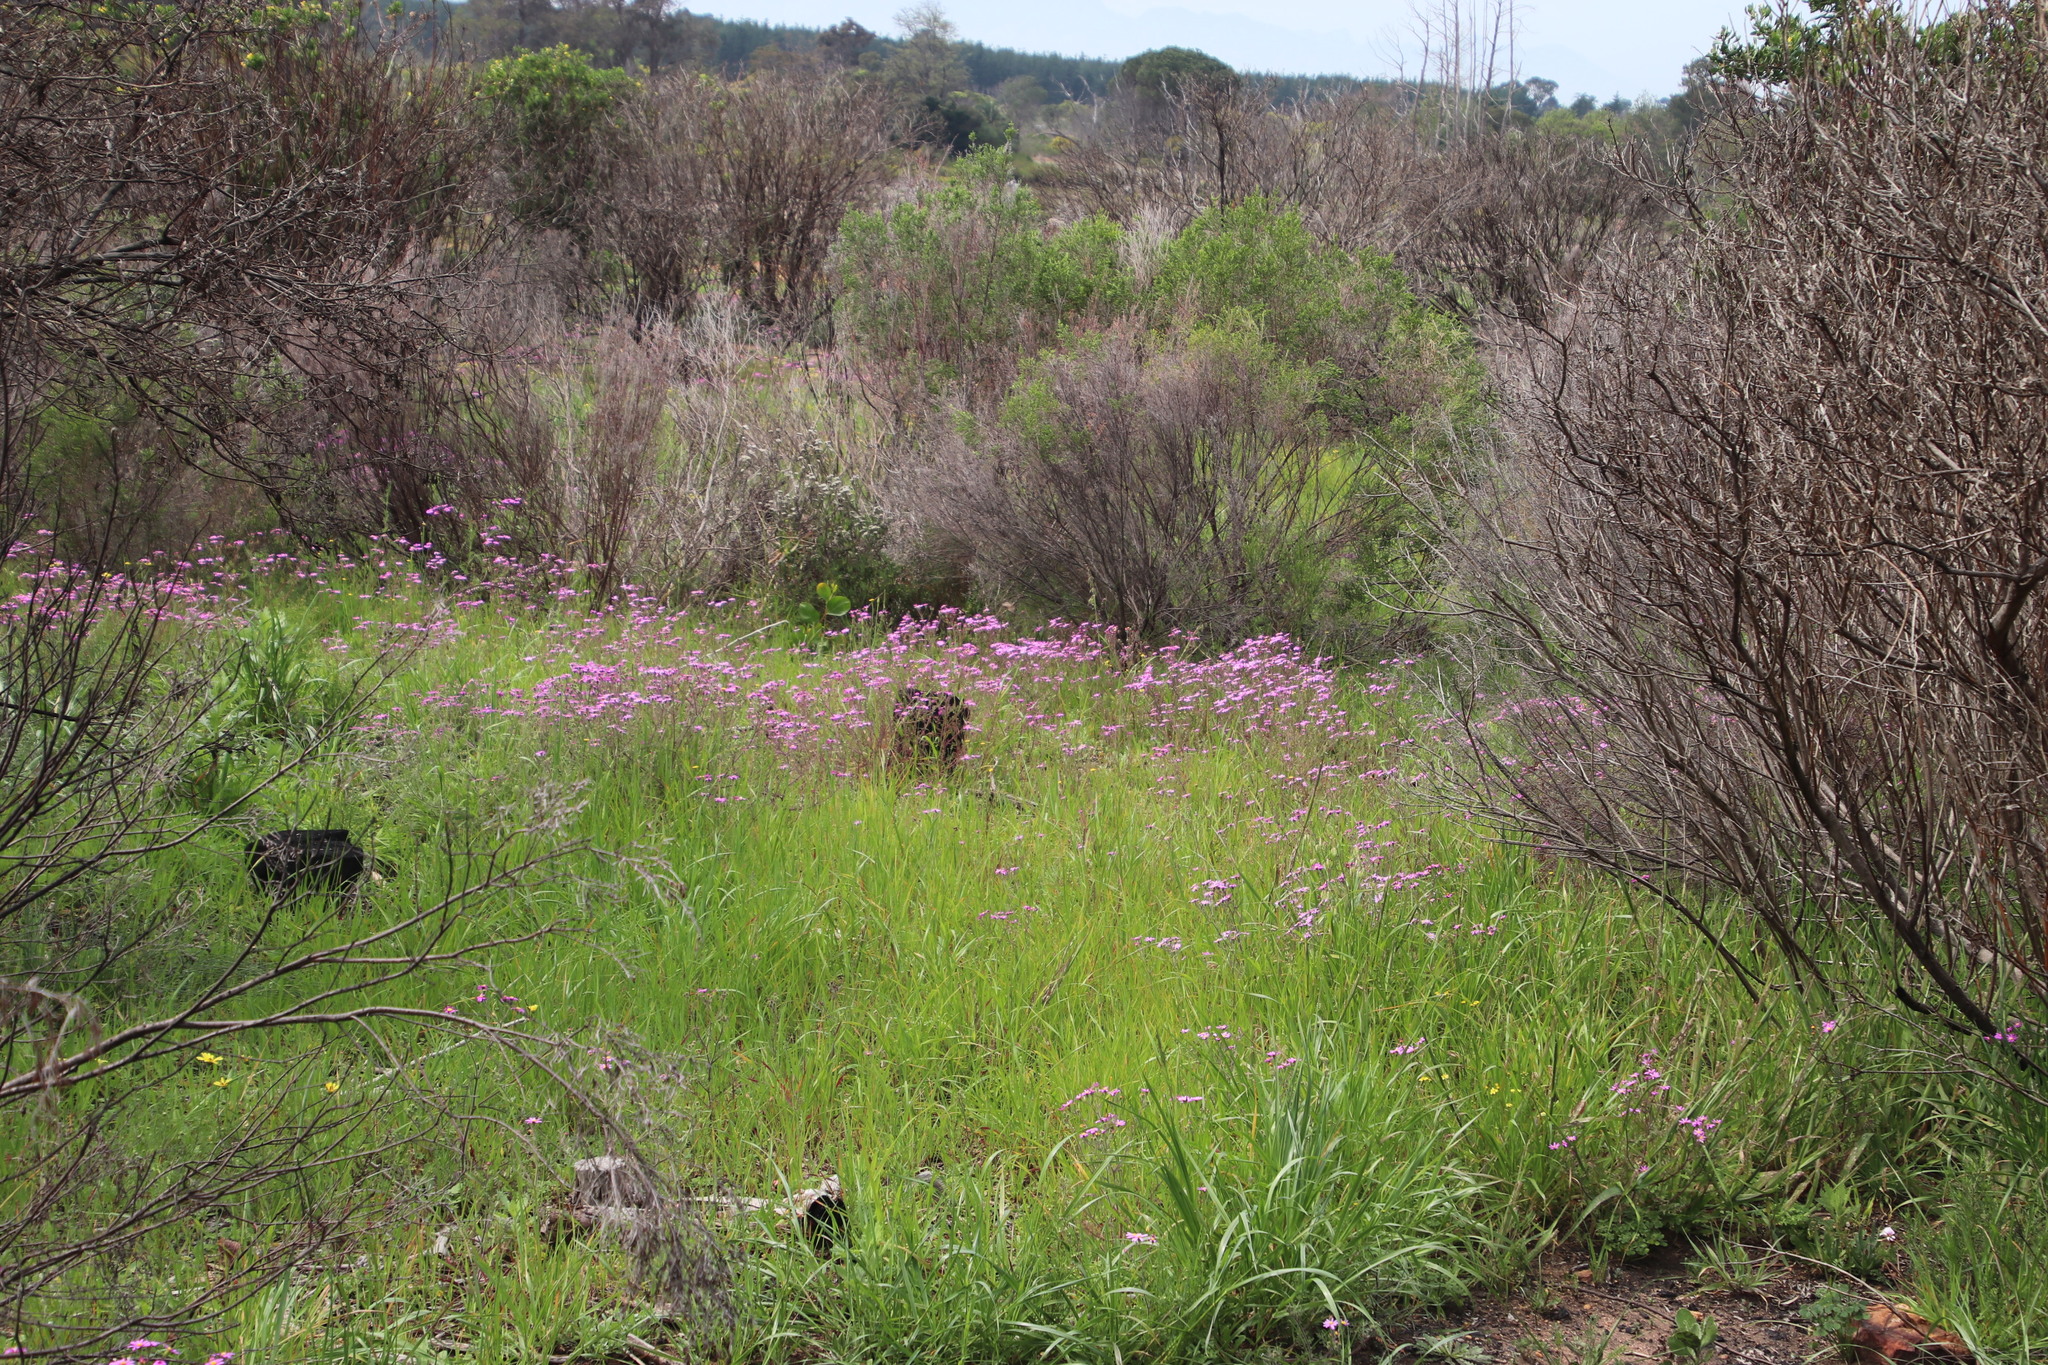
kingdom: Plantae
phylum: Tracheophyta
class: Magnoliopsida
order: Asterales
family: Asteraceae
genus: Senecio
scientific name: Senecio arenarius
